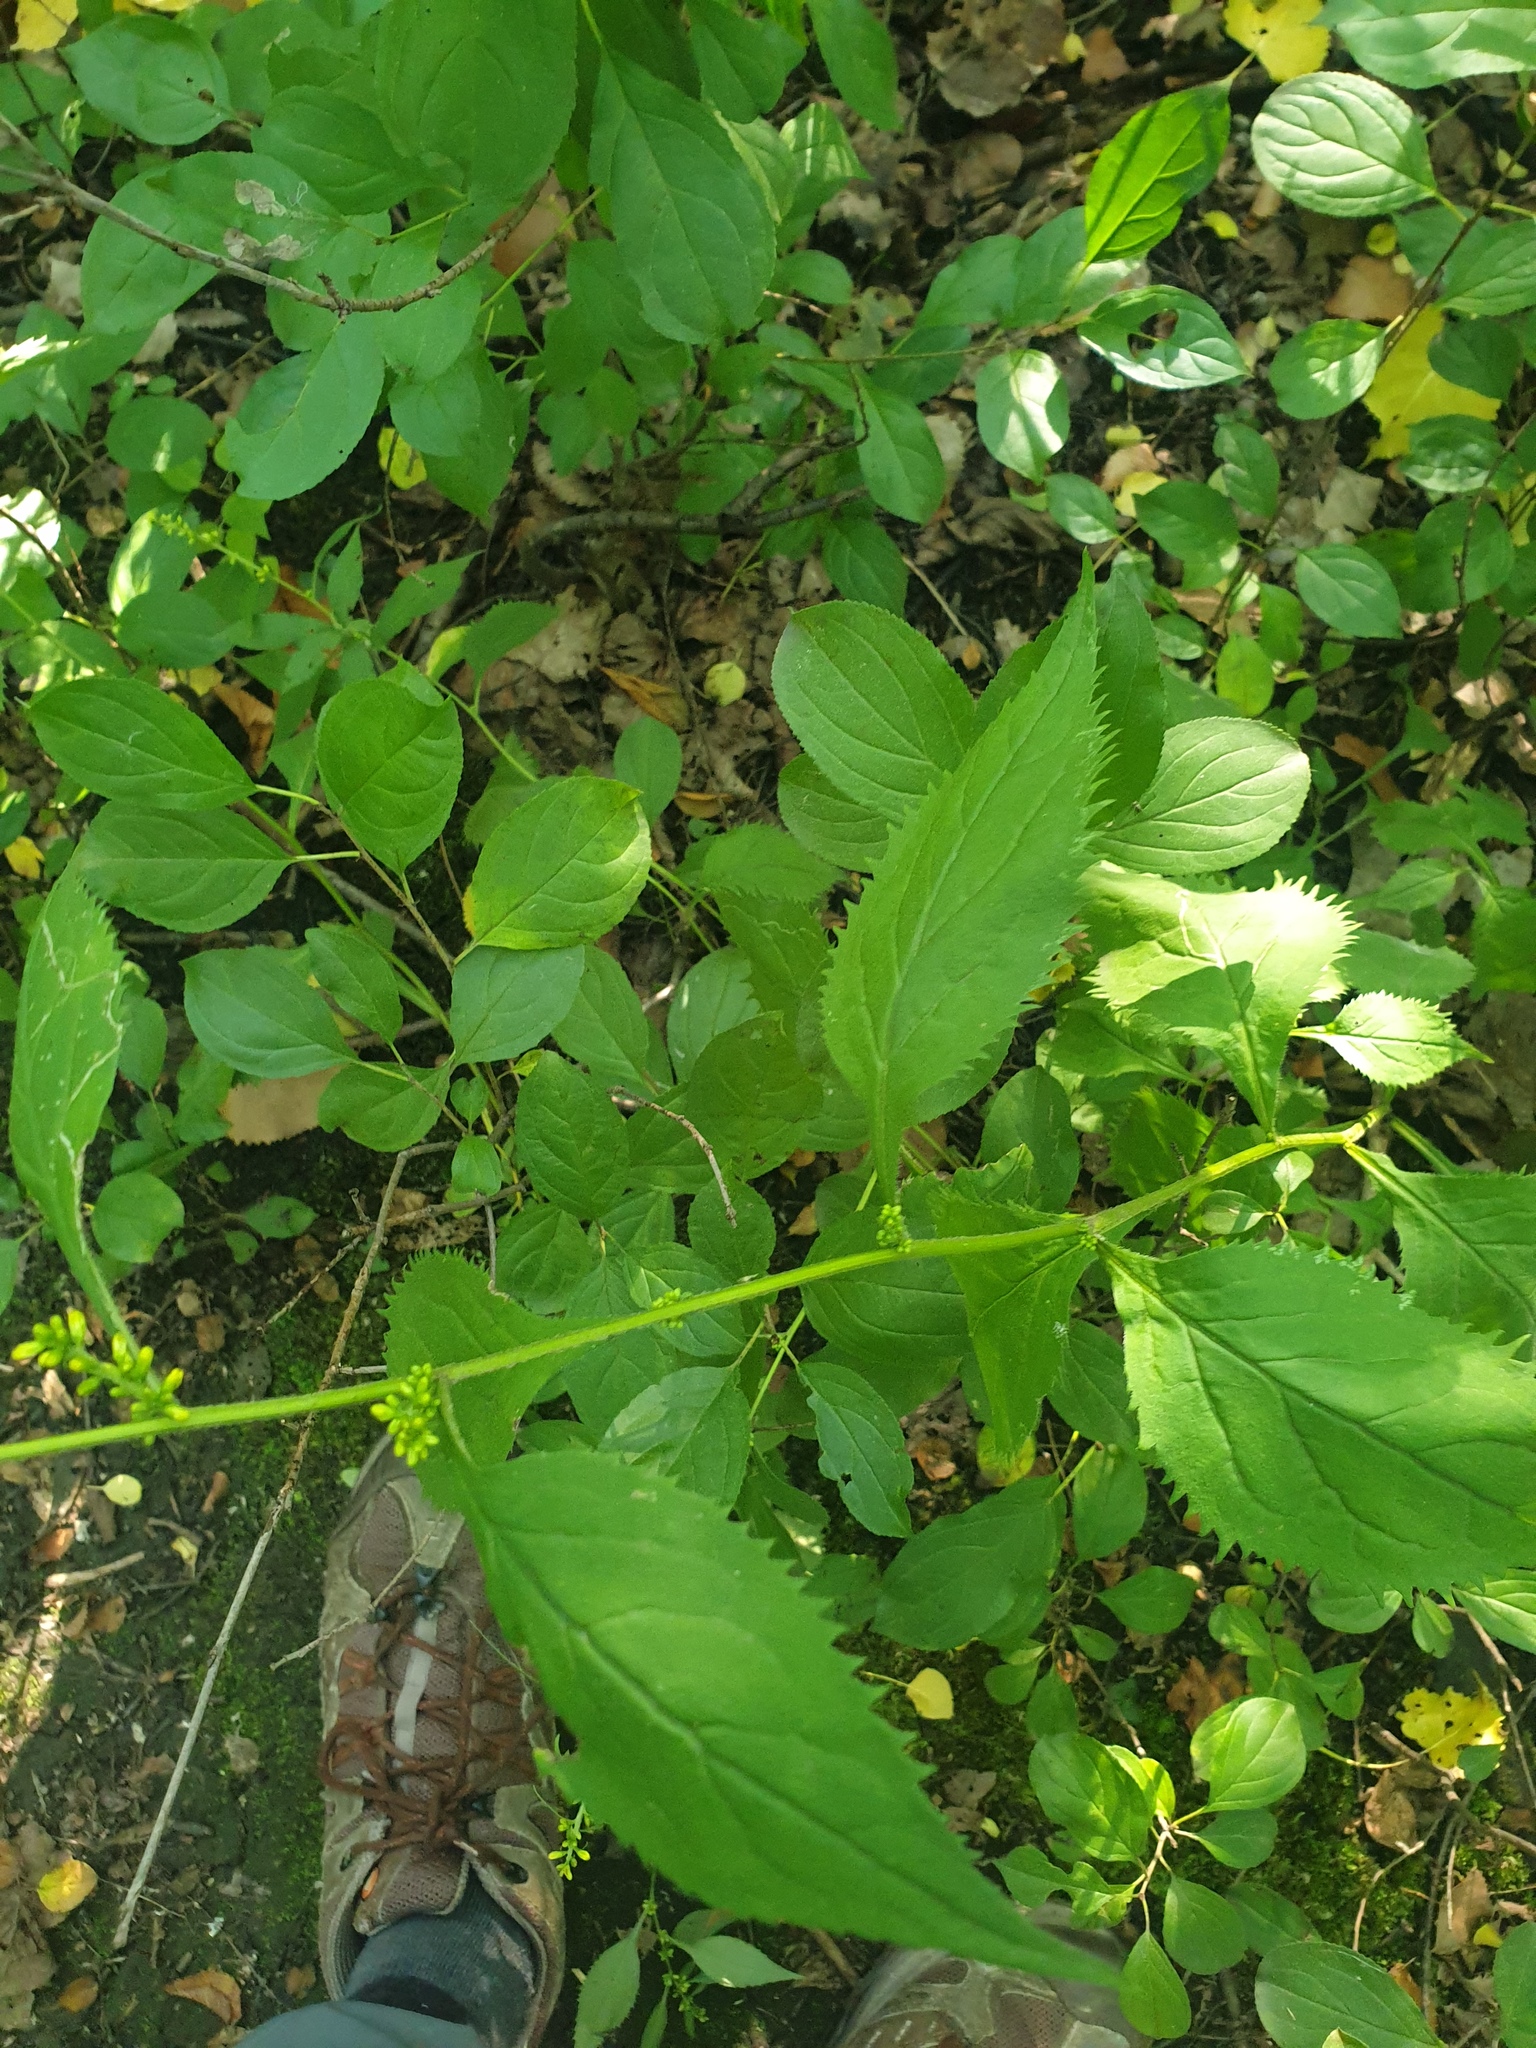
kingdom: Plantae
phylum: Tracheophyta
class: Magnoliopsida
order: Asterales
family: Asteraceae
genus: Solidago
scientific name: Solidago flexicaulis
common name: Zig-zag goldenrod
